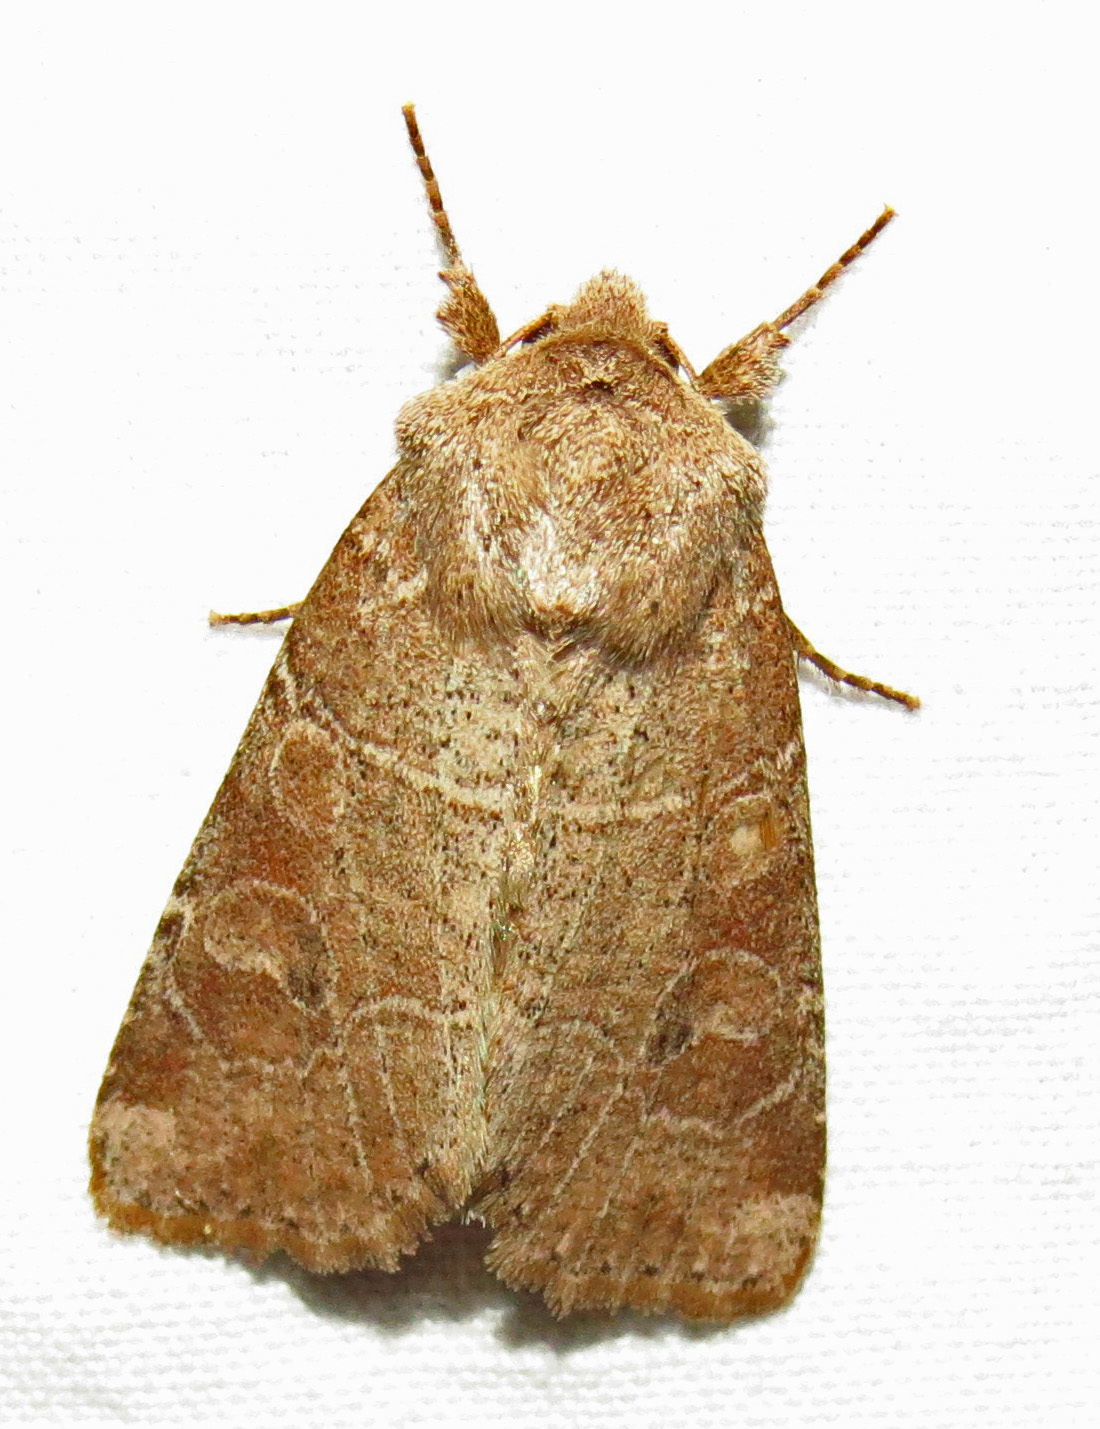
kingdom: Animalia
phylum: Arthropoda
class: Insecta
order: Lepidoptera
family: Noctuidae
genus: Crocigrapha
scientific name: Crocigrapha normani
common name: Norman's quaker
